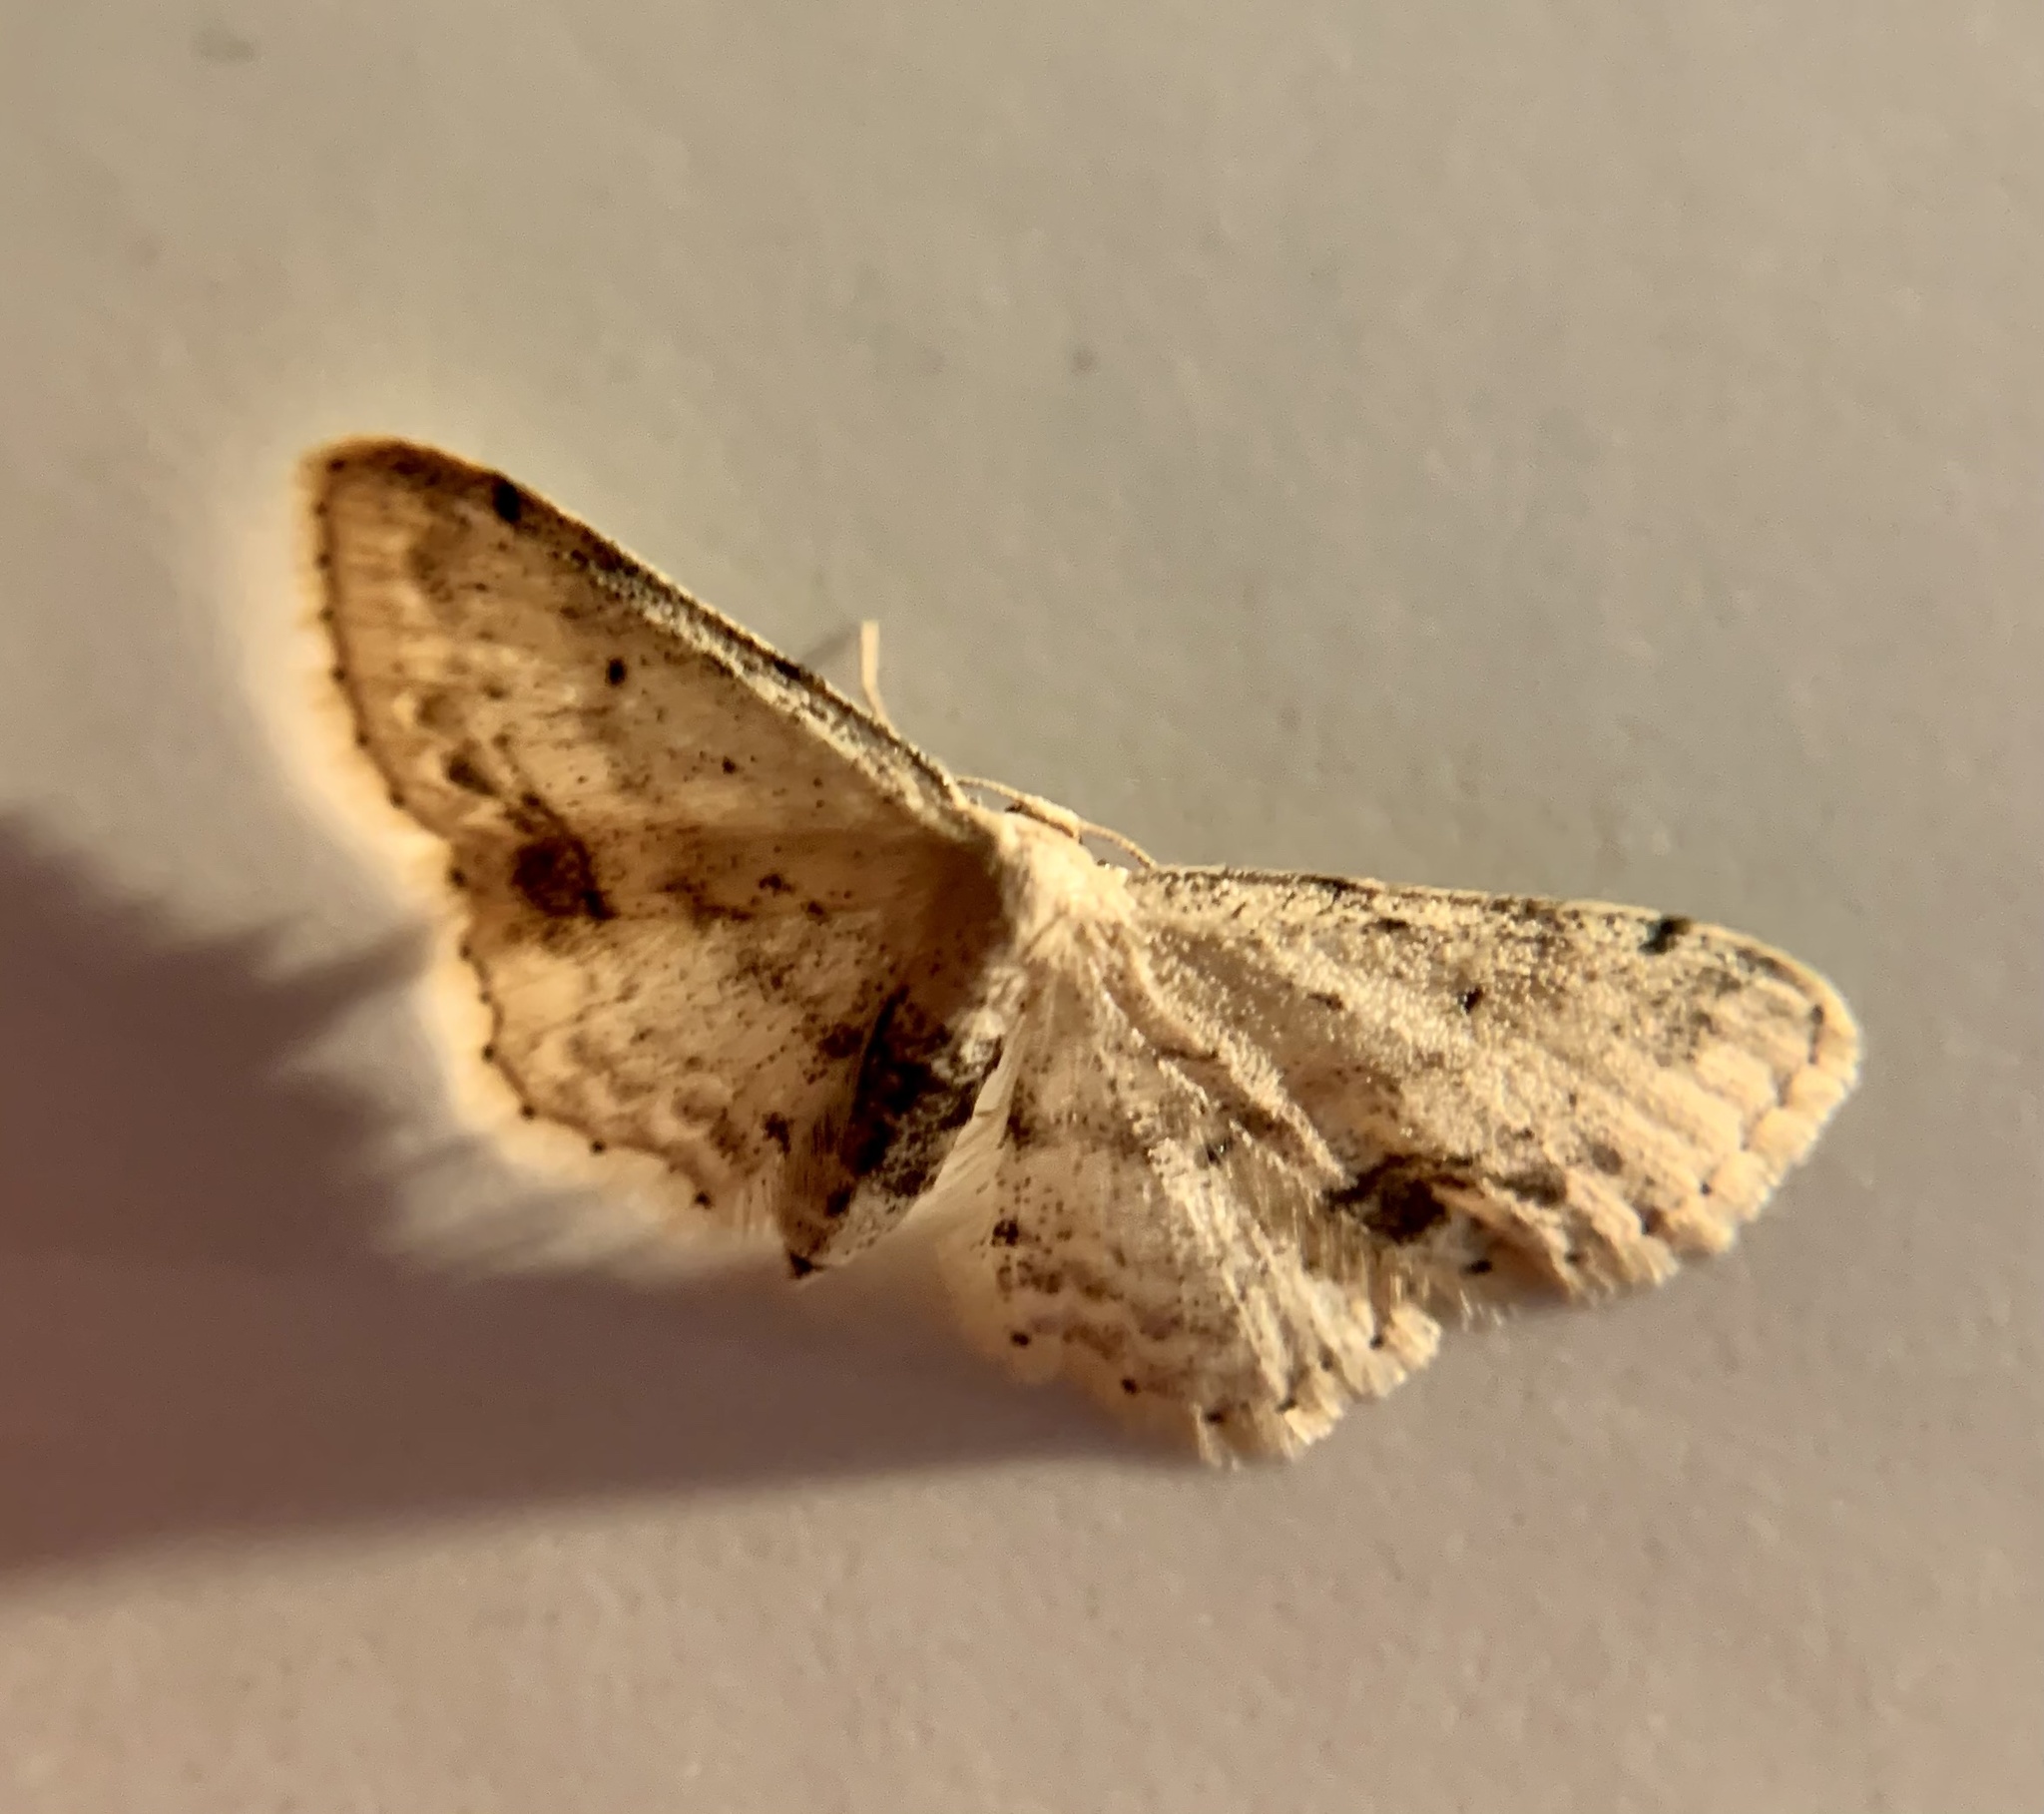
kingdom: Animalia
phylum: Arthropoda
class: Insecta
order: Lepidoptera
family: Geometridae
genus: Idaea
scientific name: Idaea dimidiata
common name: Single-dotted wave
